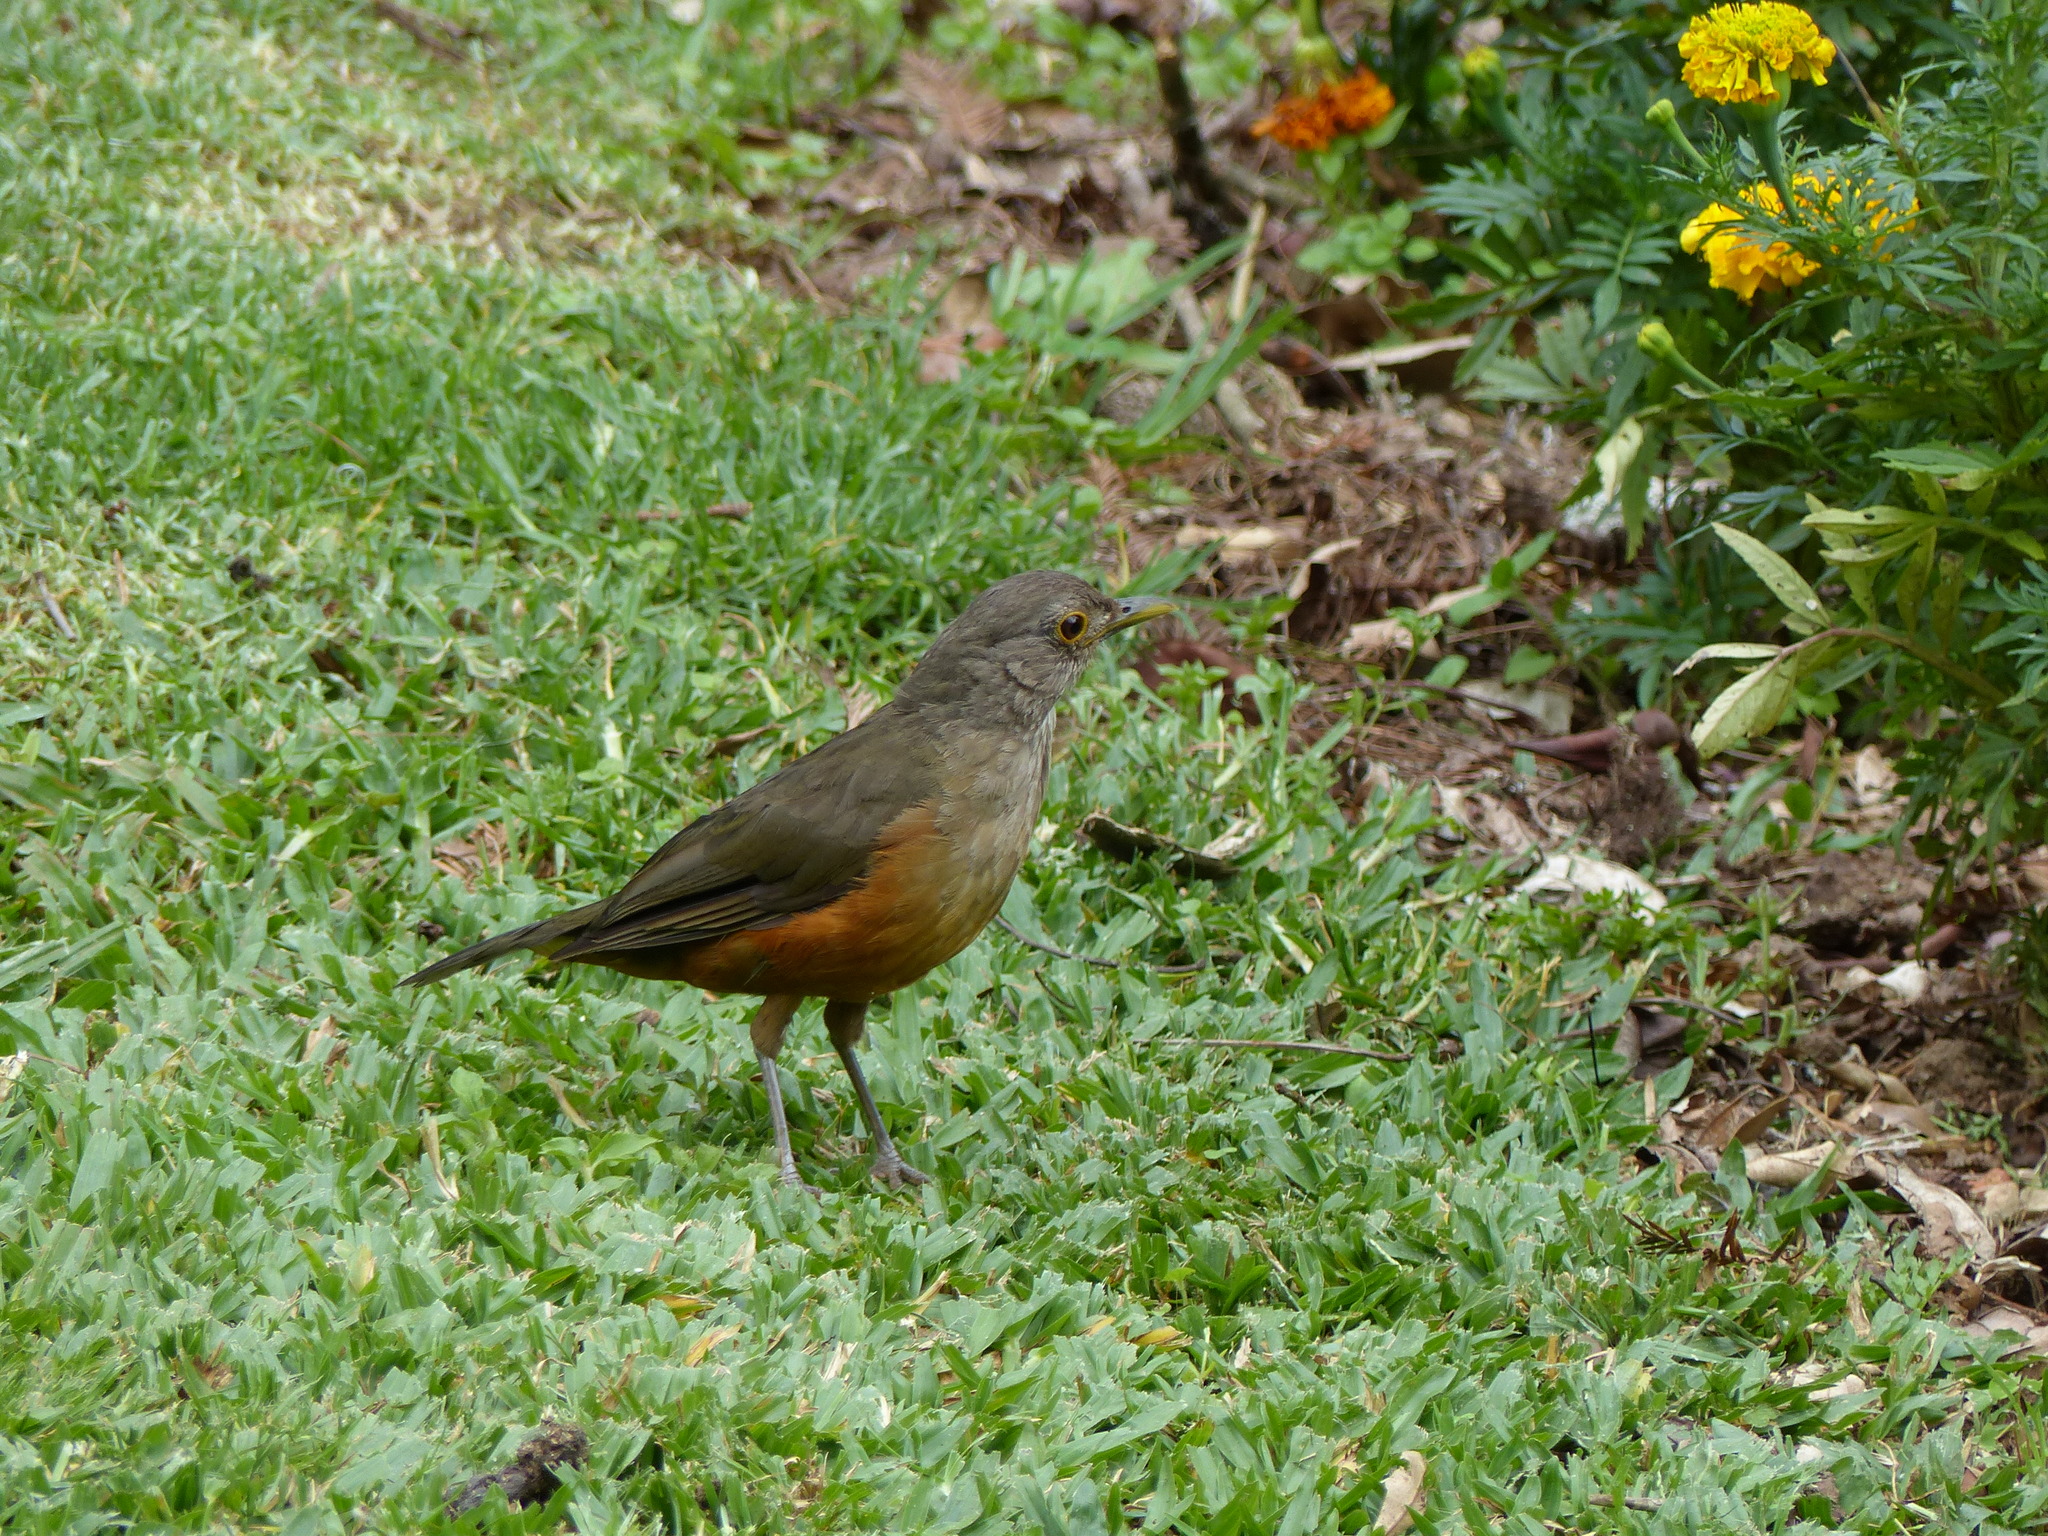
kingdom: Animalia
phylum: Chordata
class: Aves
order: Passeriformes
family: Turdidae
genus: Turdus
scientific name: Turdus rufiventris
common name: Rufous-bellied thrush
